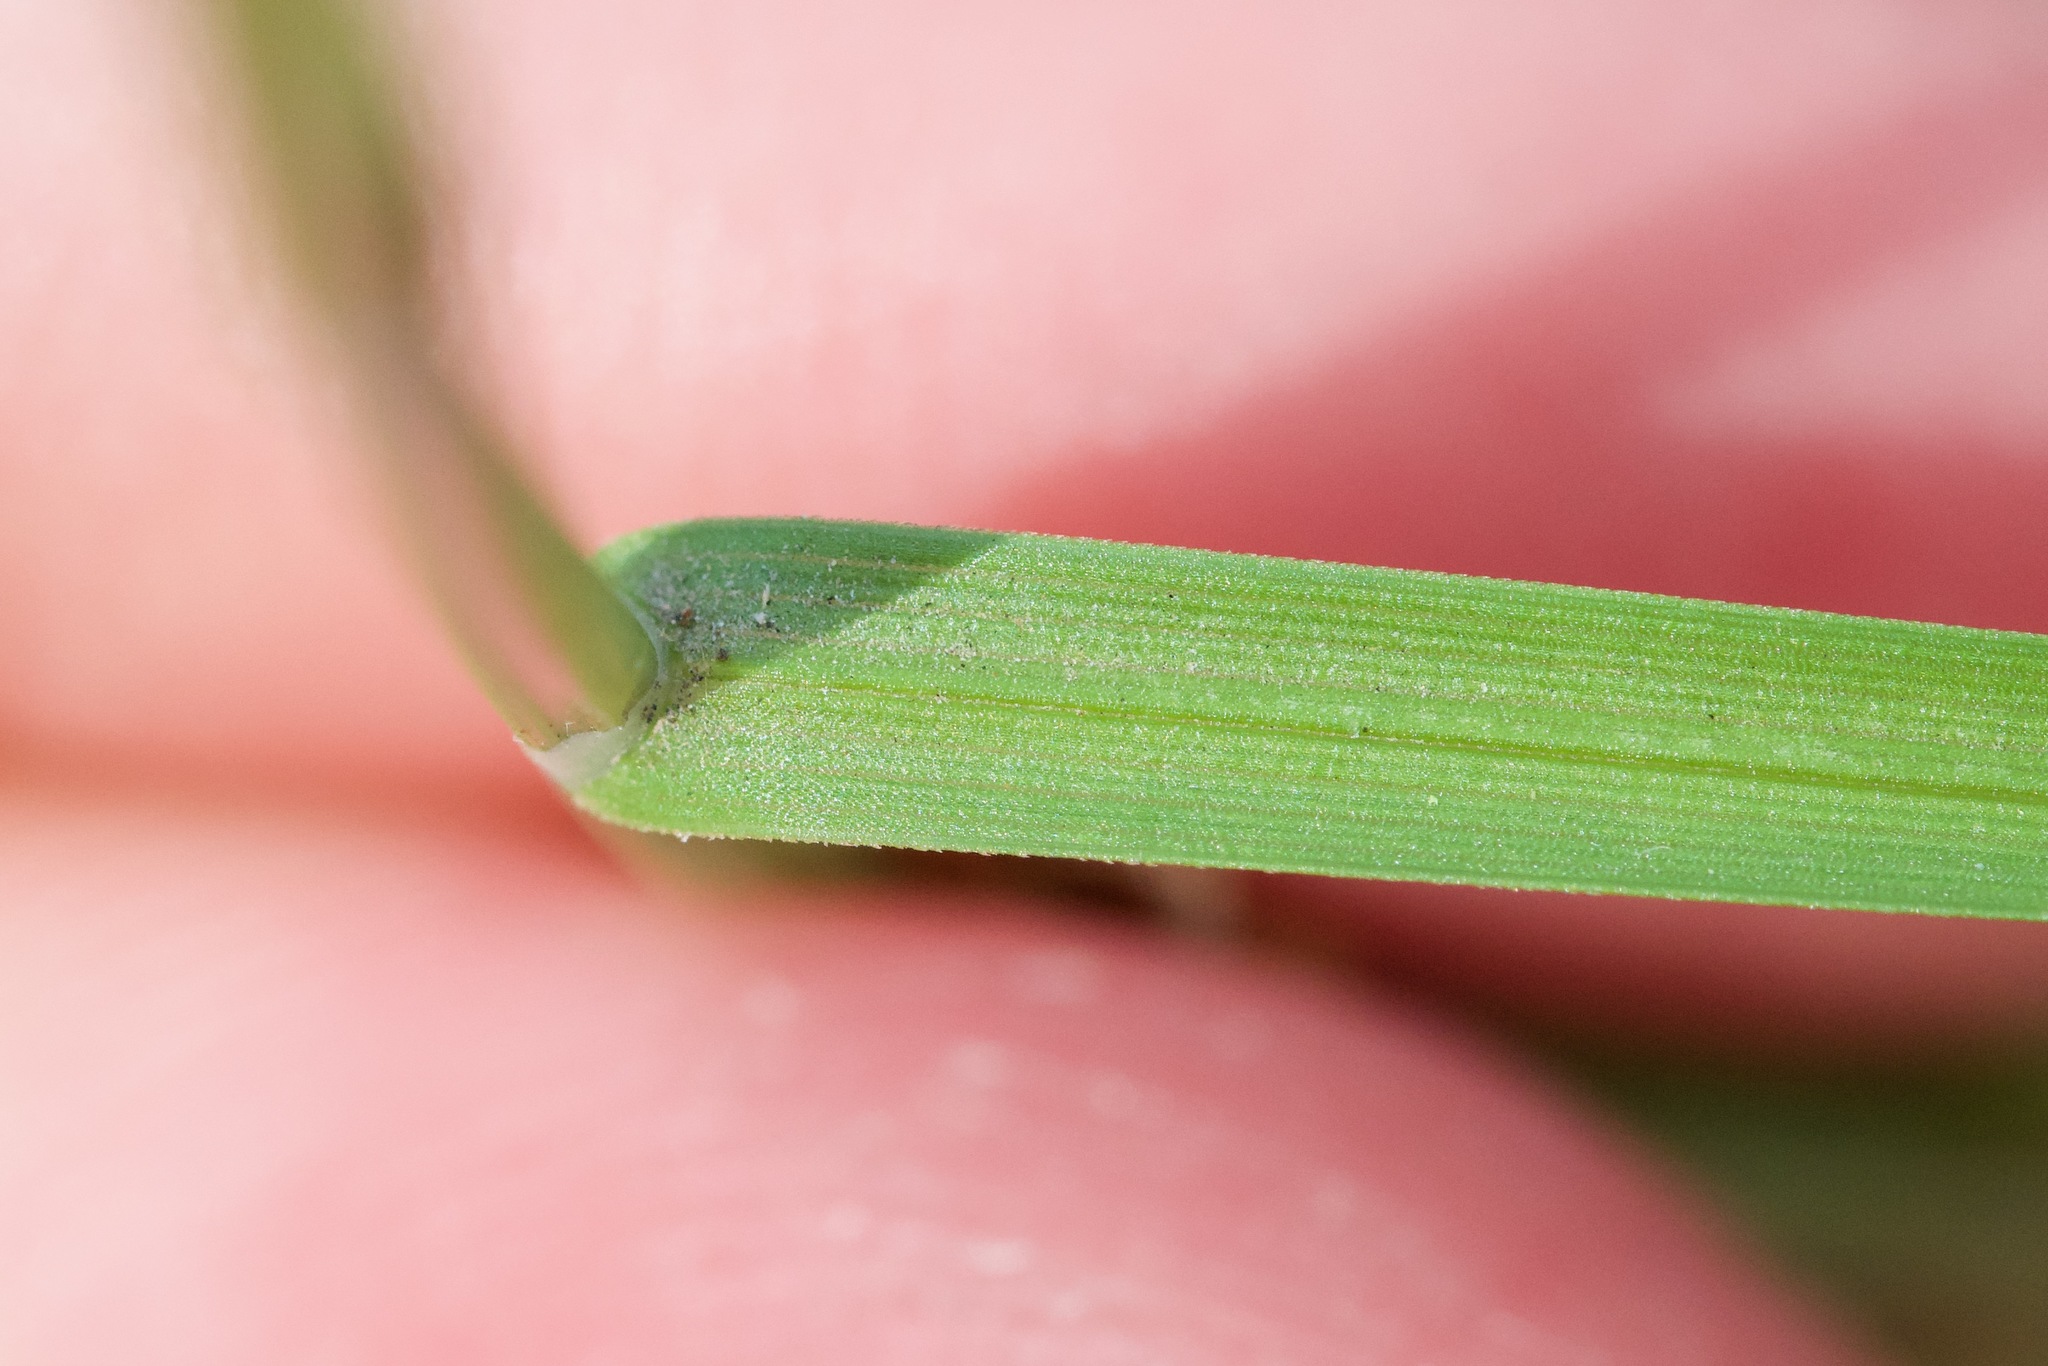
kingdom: Plantae
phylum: Tracheophyta
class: Liliopsida
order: Poales
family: Cyperaceae
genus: Carex
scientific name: Carex siccata
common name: Dry sedge
